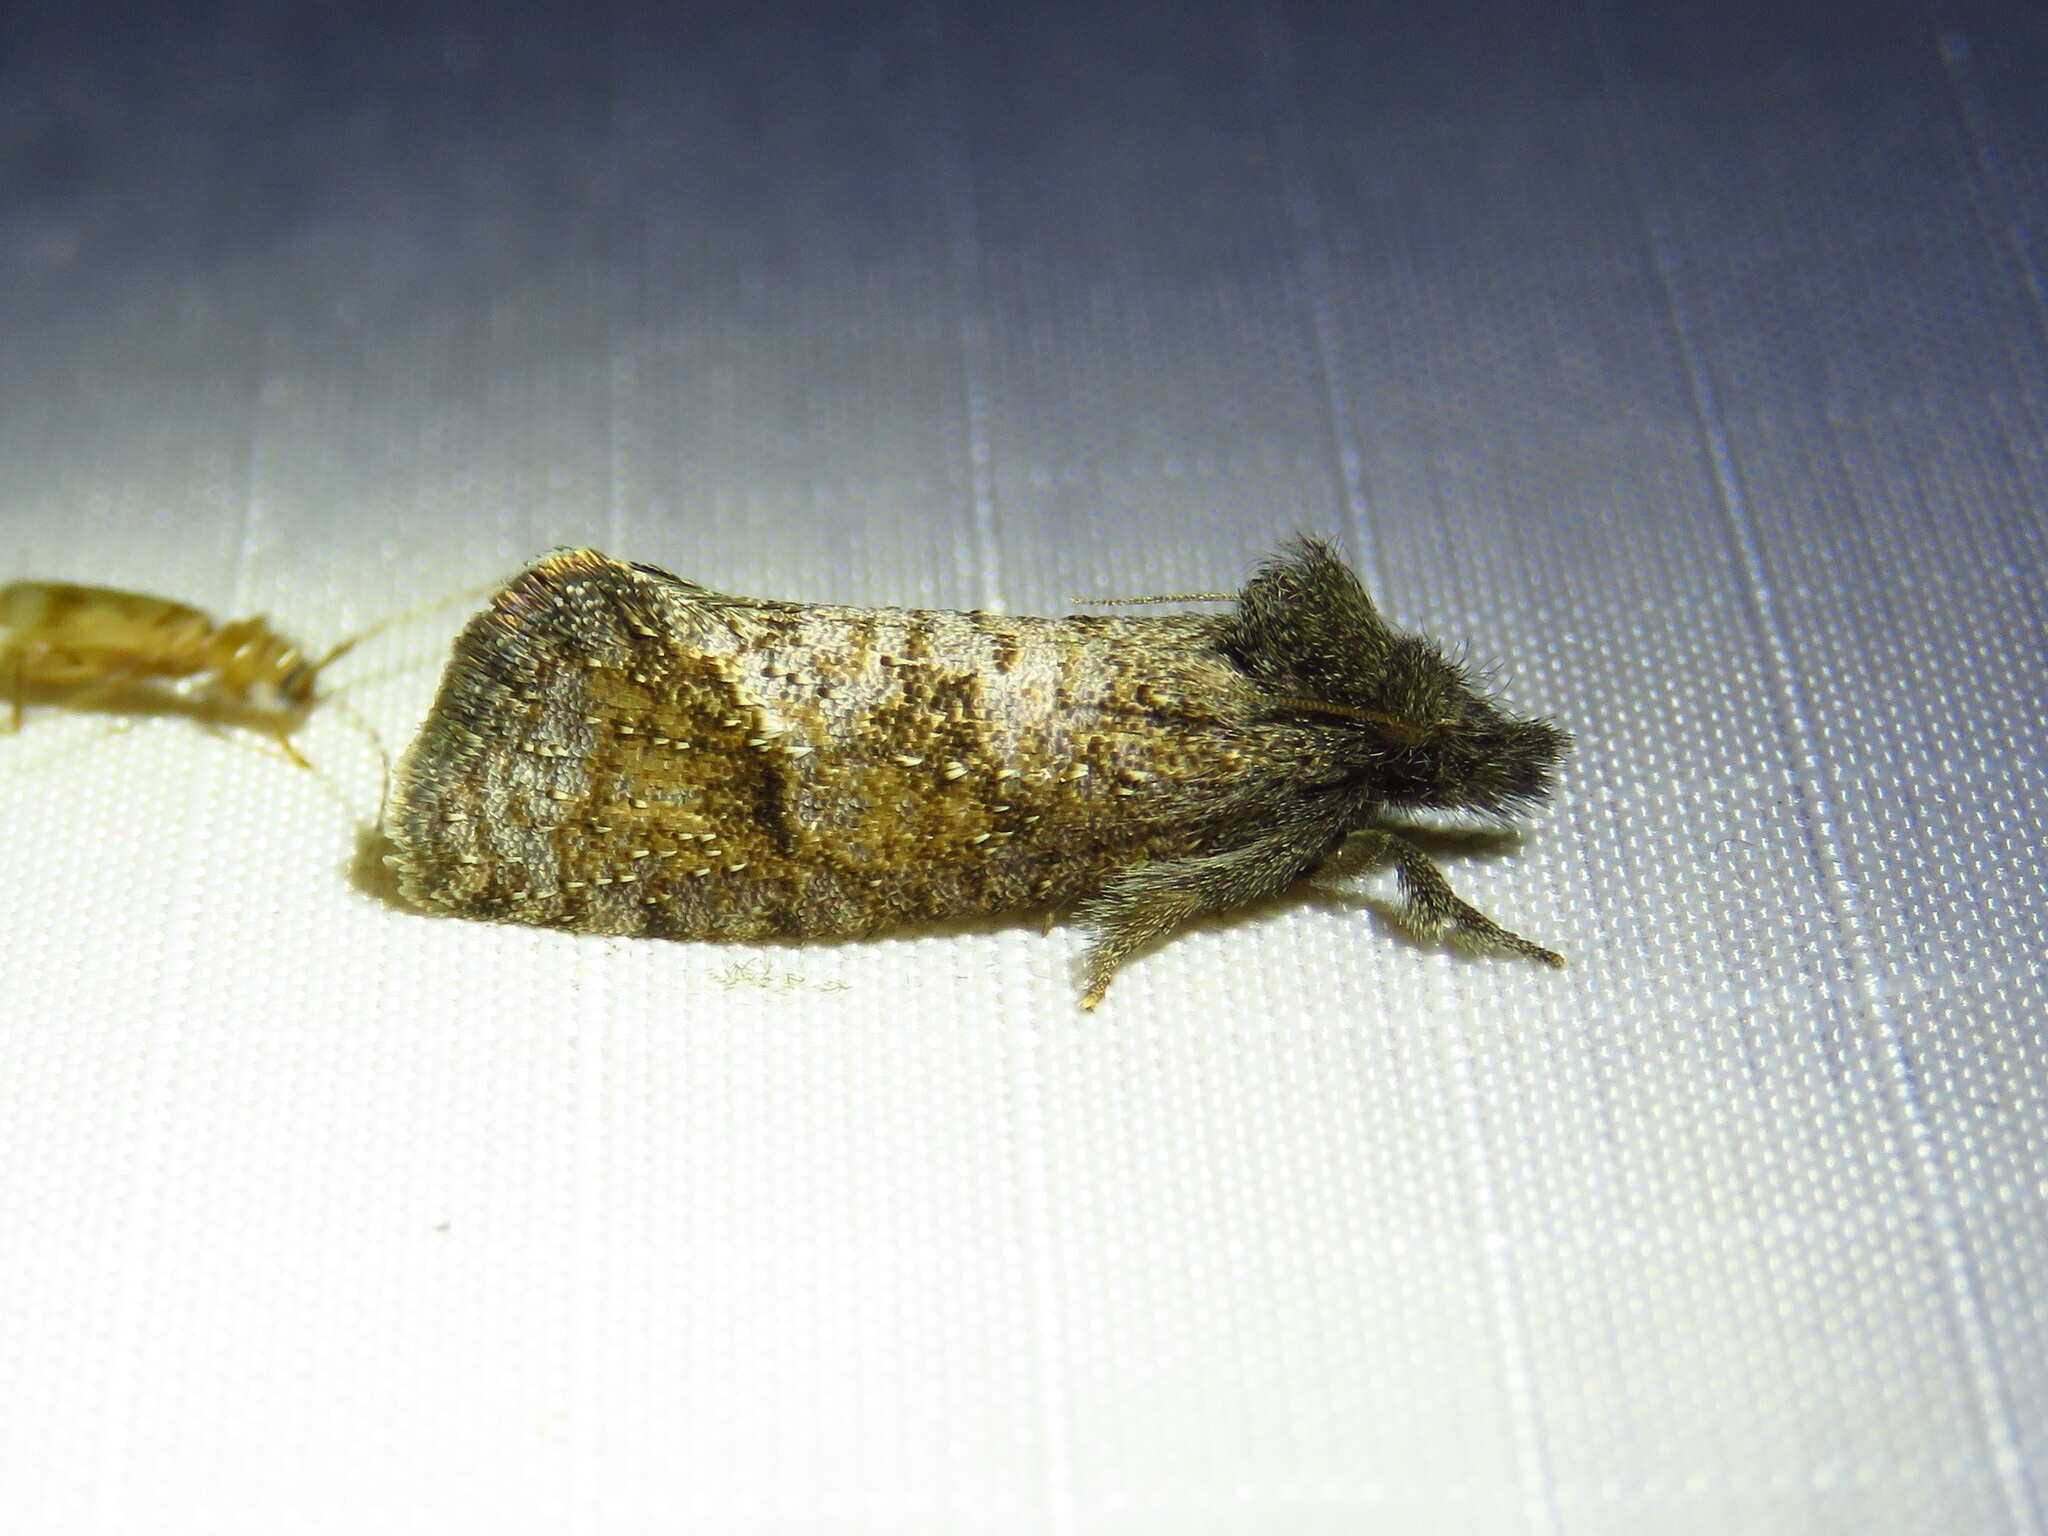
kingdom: Animalia
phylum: Arthropoda
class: Insecta
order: Lepidoptera
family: Tineidae
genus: Acrolophus
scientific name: Acrolophus texanella
